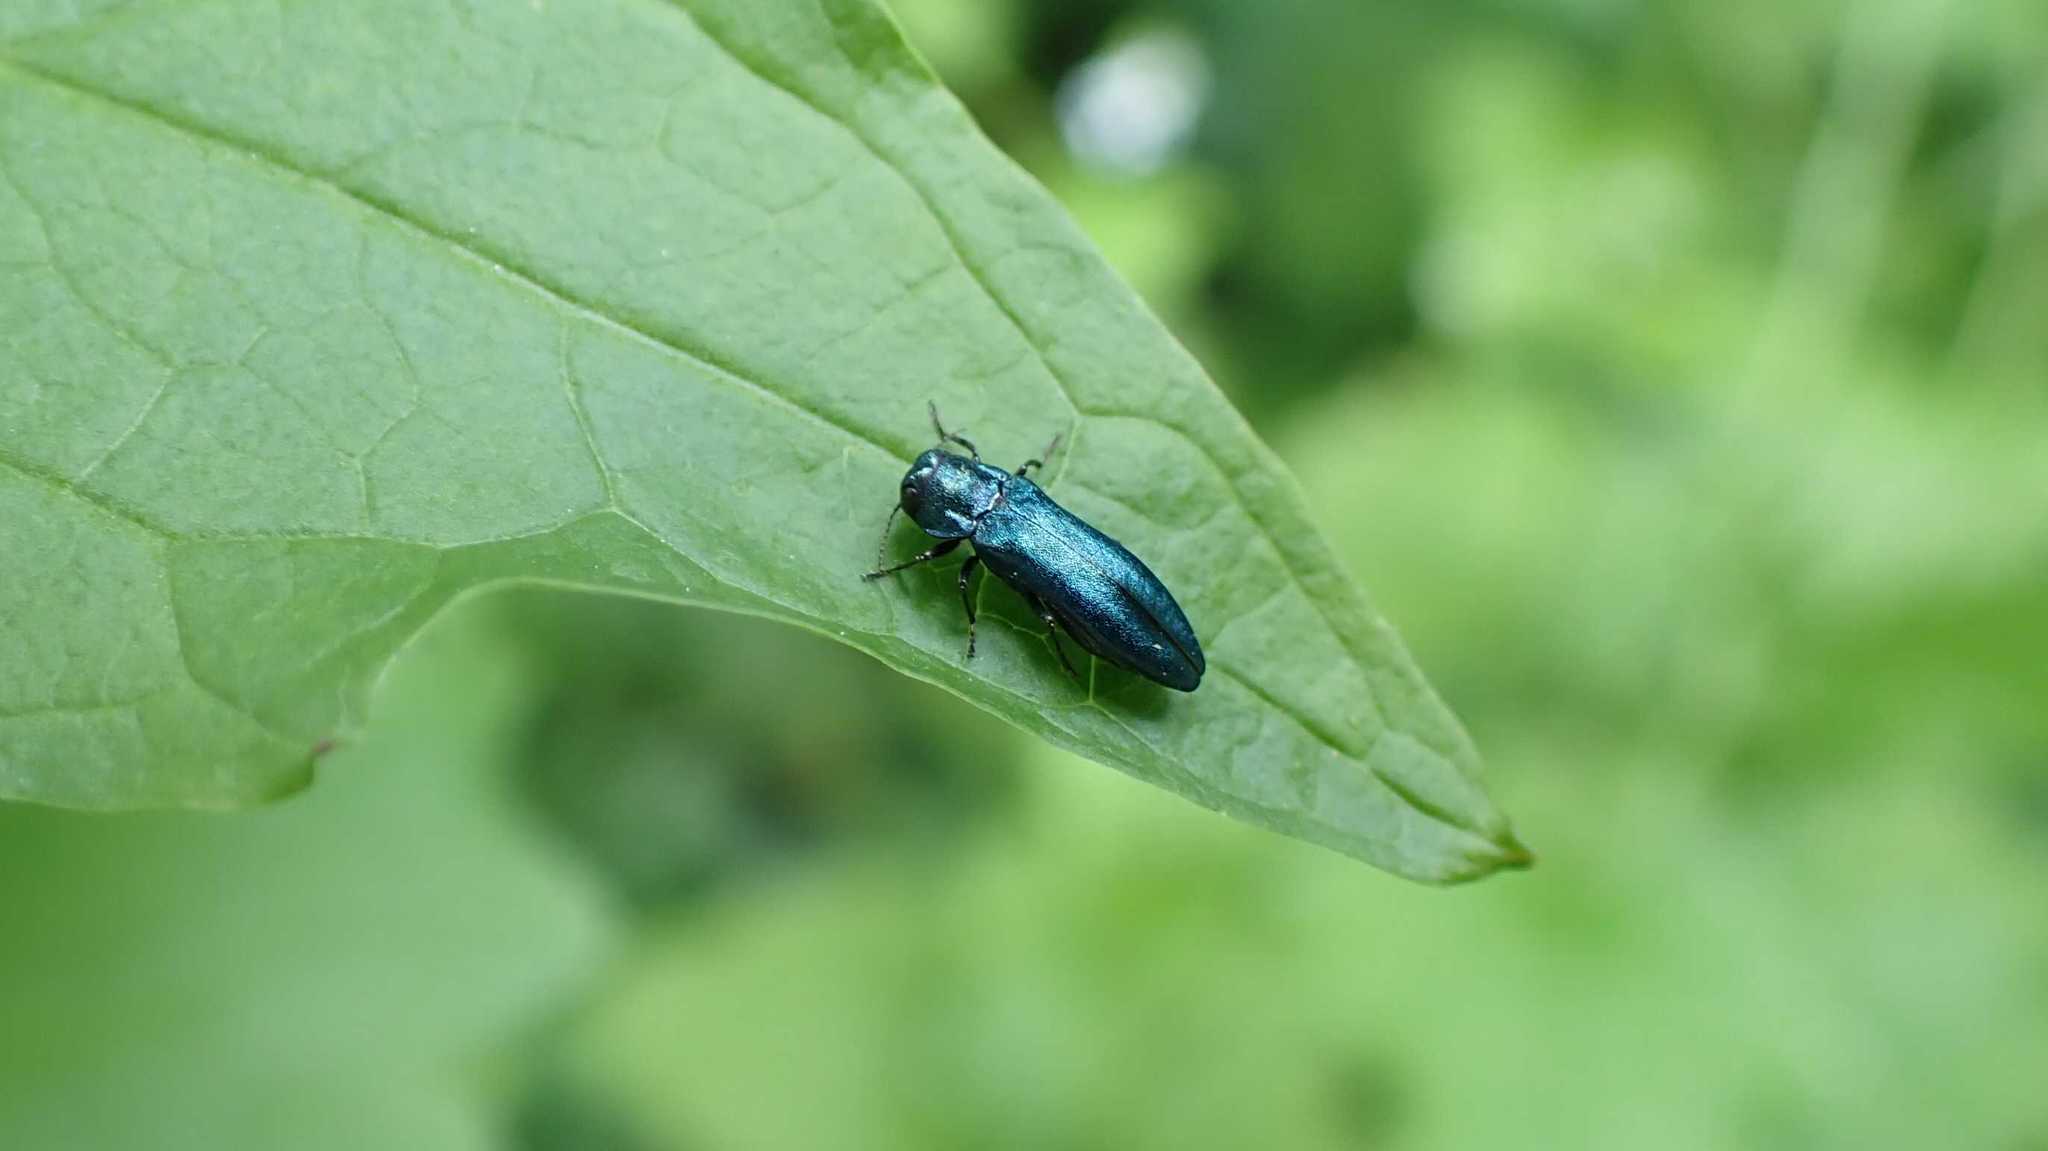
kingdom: Animalia
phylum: Arthropoda
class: Insecta
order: Coleoptera
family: Buprestidae
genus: Agrilus
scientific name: Agrilus cyanescens
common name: Bluish borer beetle
